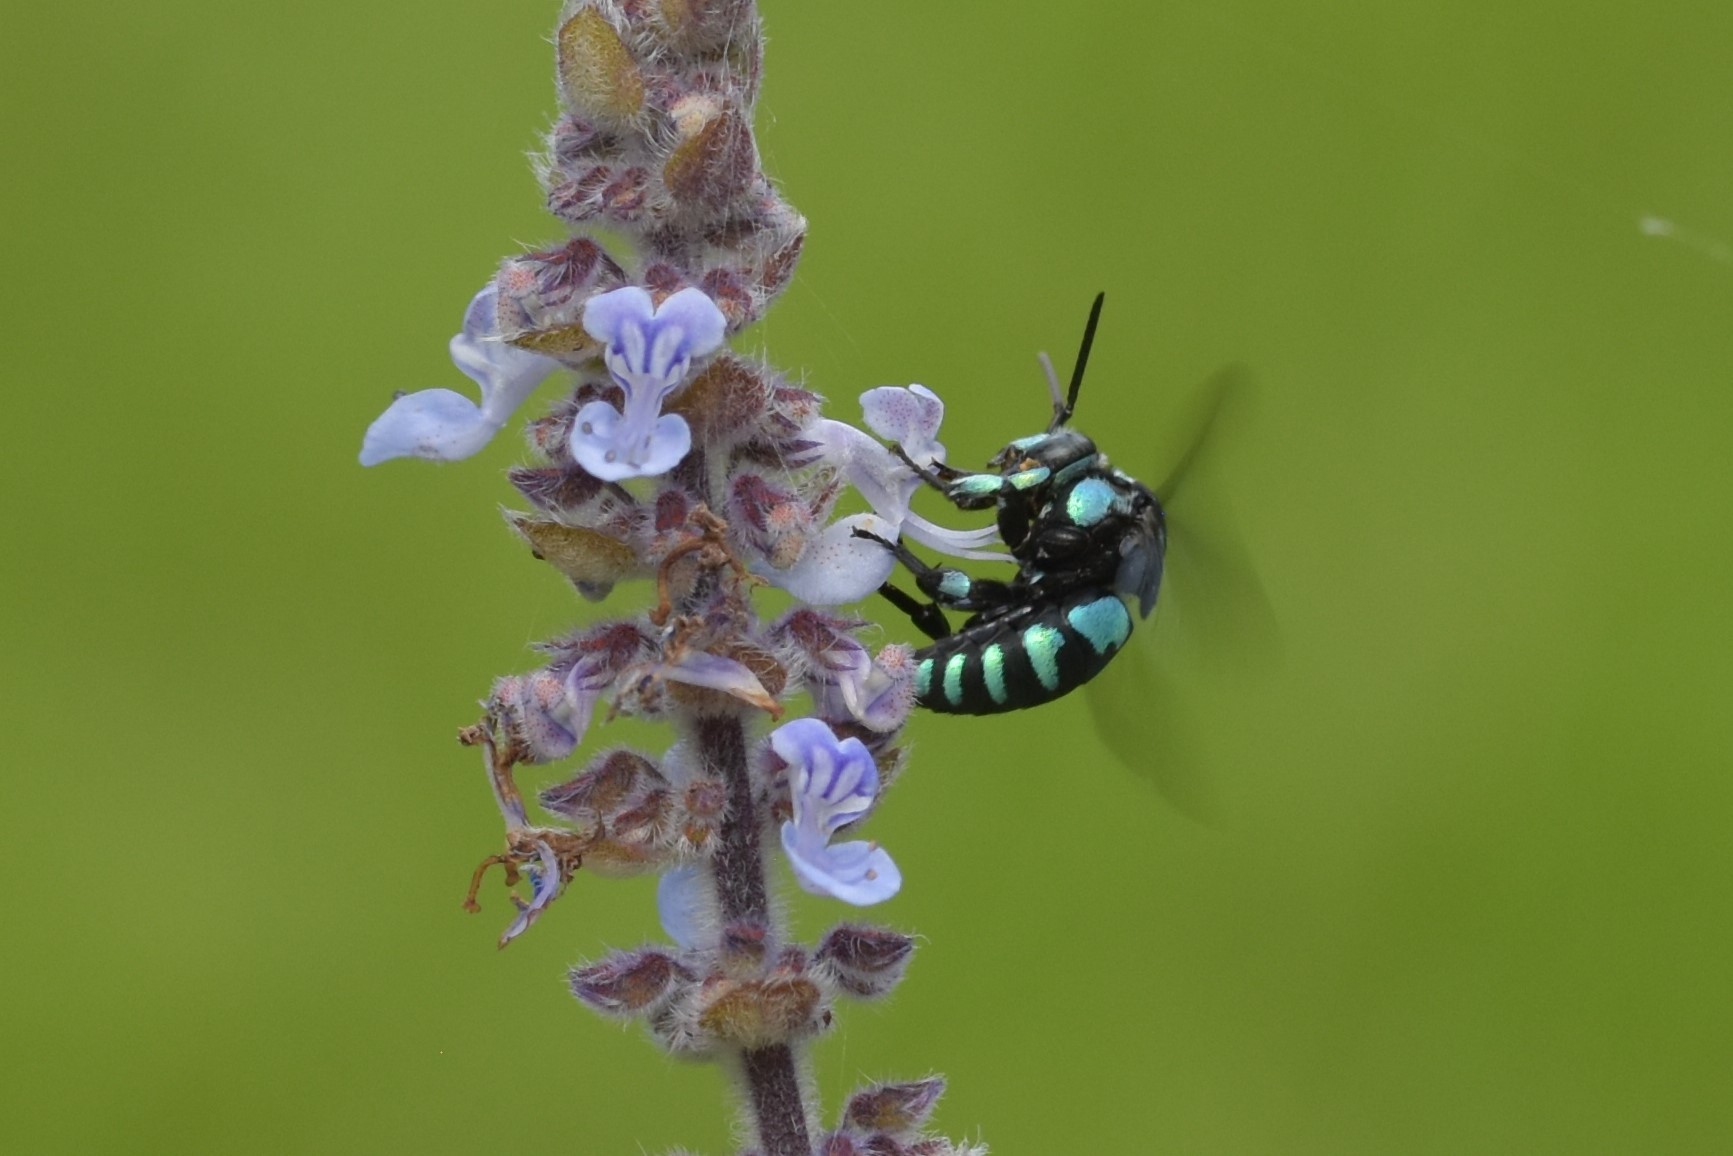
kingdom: Animalia
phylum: Arthropoda
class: Insecta
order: Hymenoptera
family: Apidae
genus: Thyreus
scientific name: Thyreus nitidulus
